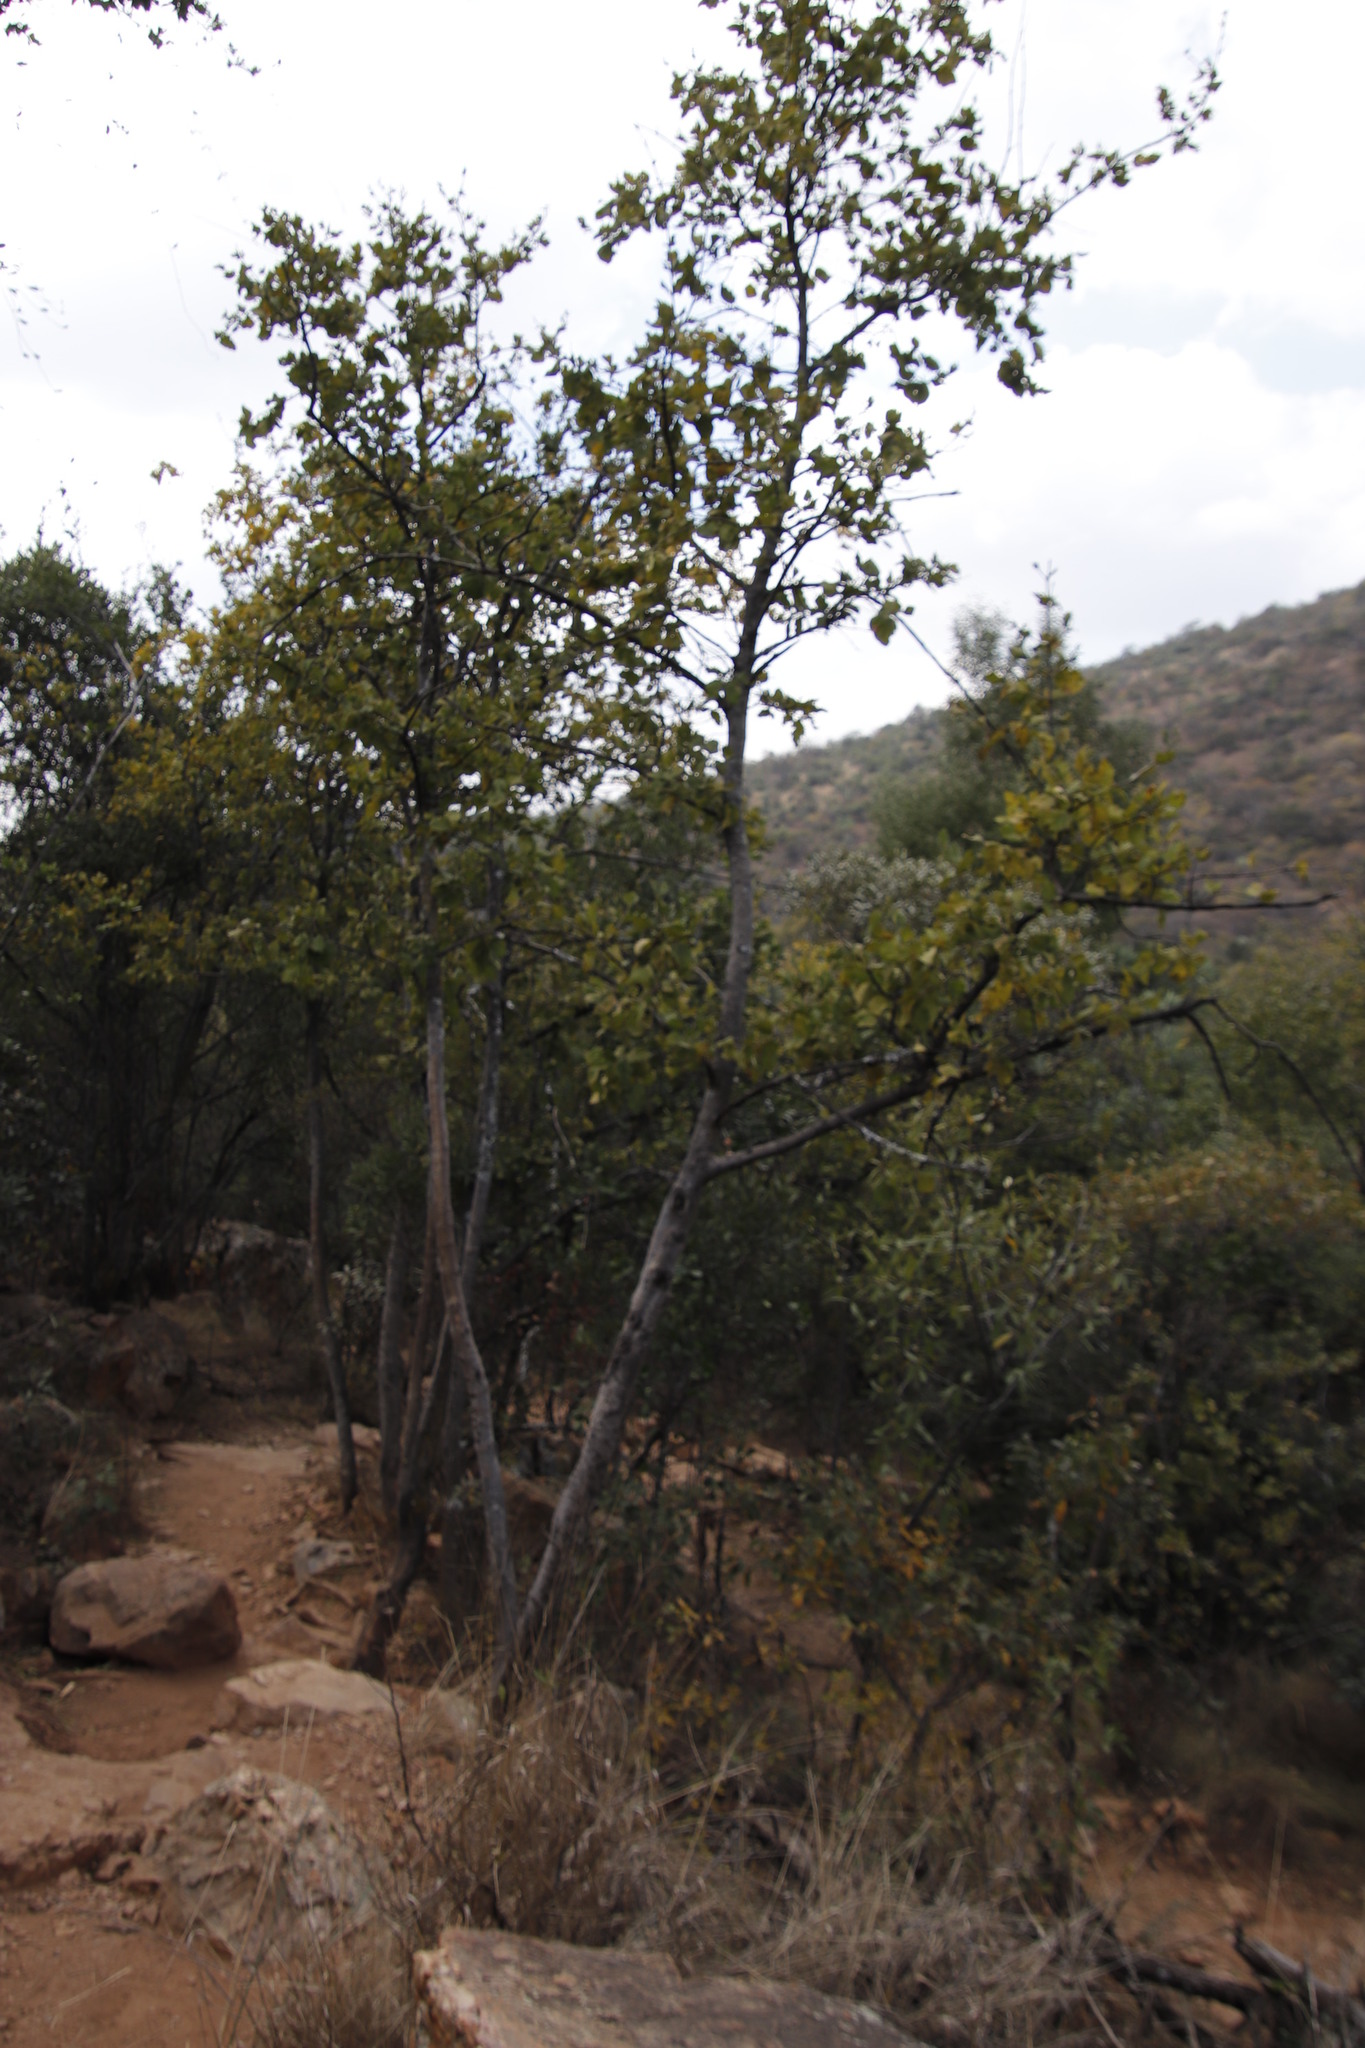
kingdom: Plantae
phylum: Tracheophyta
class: Magnoliopsida
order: Gentianales
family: Rubiaceae
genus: Vangueria
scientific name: Vangueria infausta
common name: Medlar
